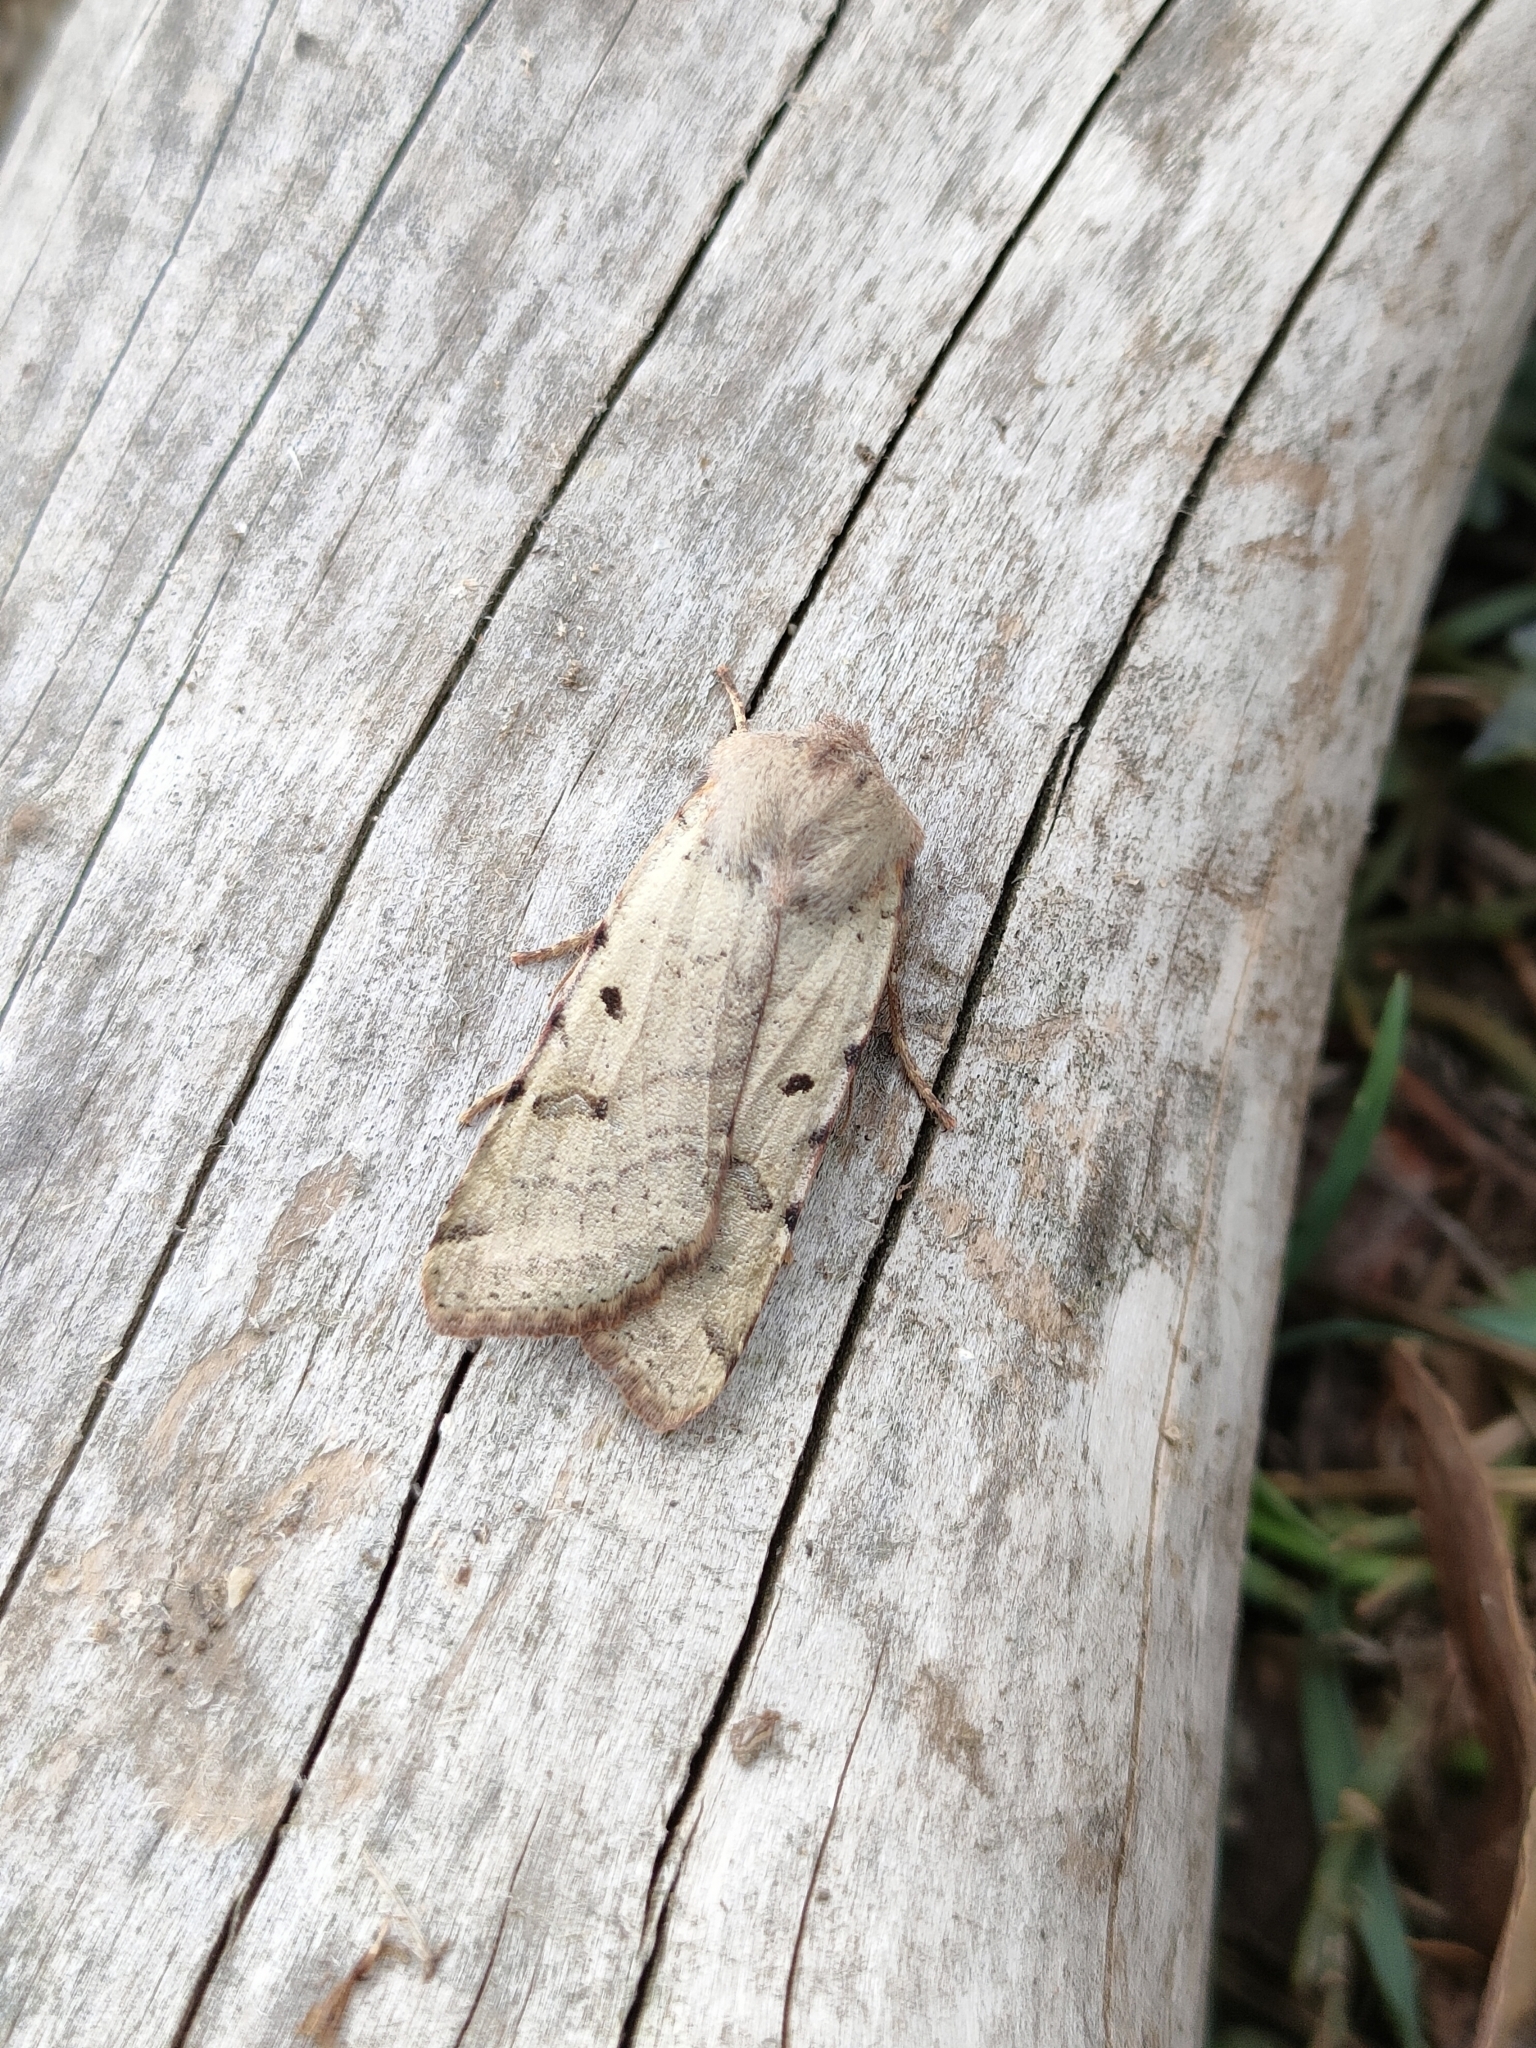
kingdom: Animalia
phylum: Arthropoda
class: Insecta
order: Lepidoptera
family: Noctuidae
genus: Agrochola
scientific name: Agrochola lychnidis
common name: Beaded chestnut
